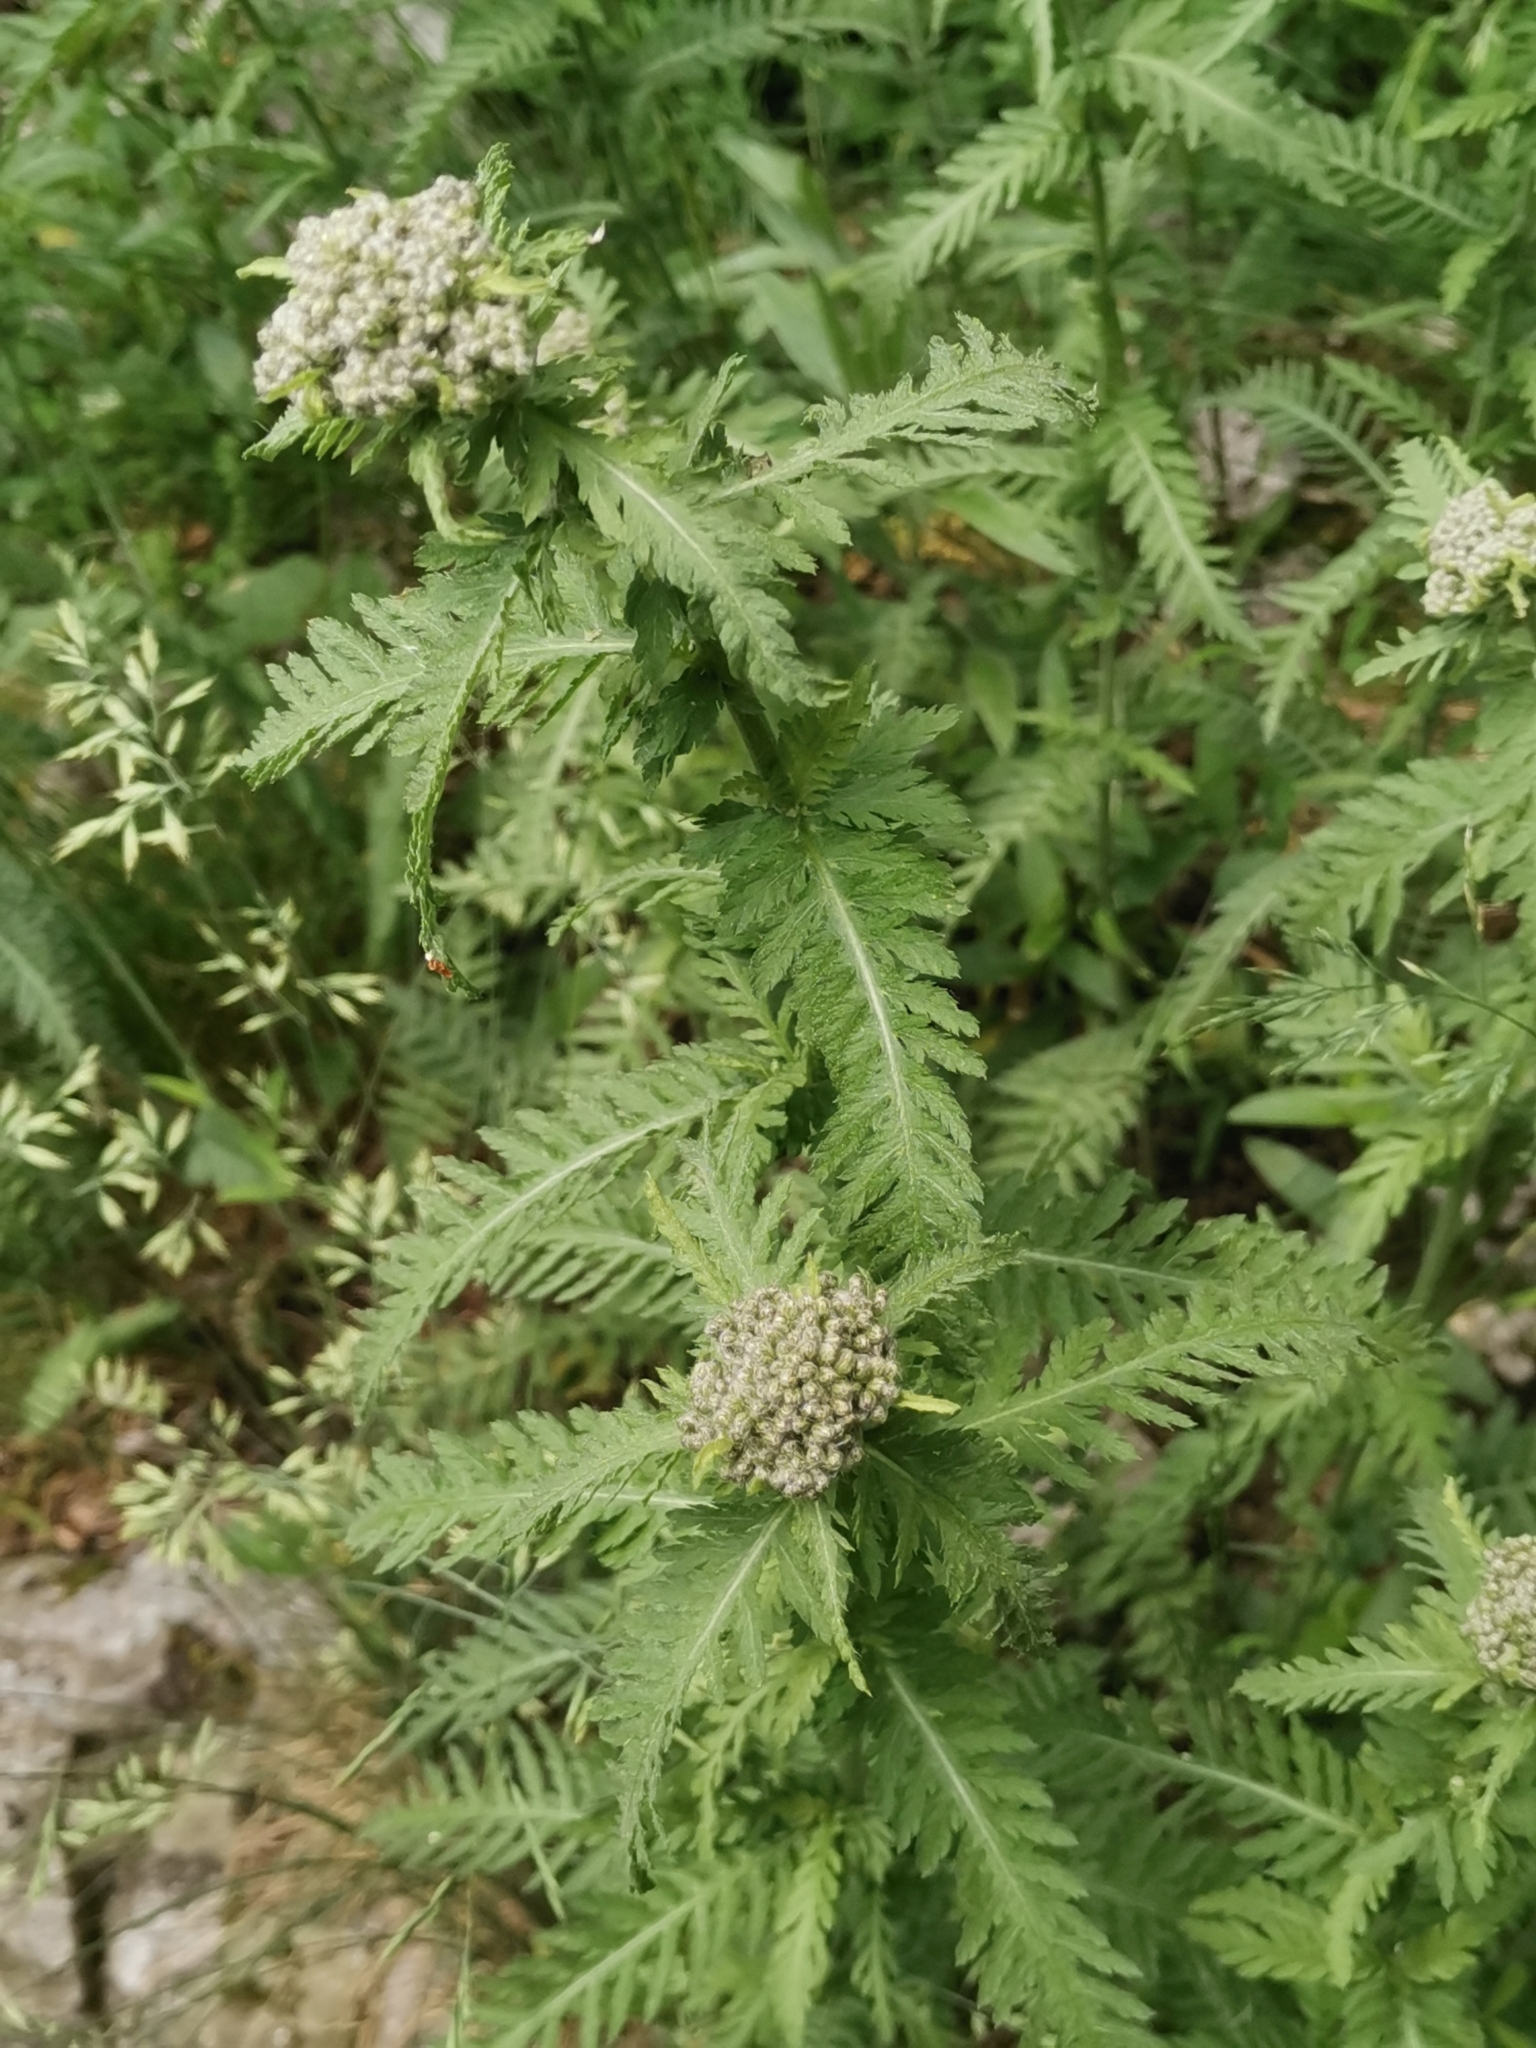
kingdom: Plantae
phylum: Tracheophyta
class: Magnoliopsida
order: Asterales
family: Asteraceae
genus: Achillea
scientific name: Achillea distans
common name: Tall yarrow
